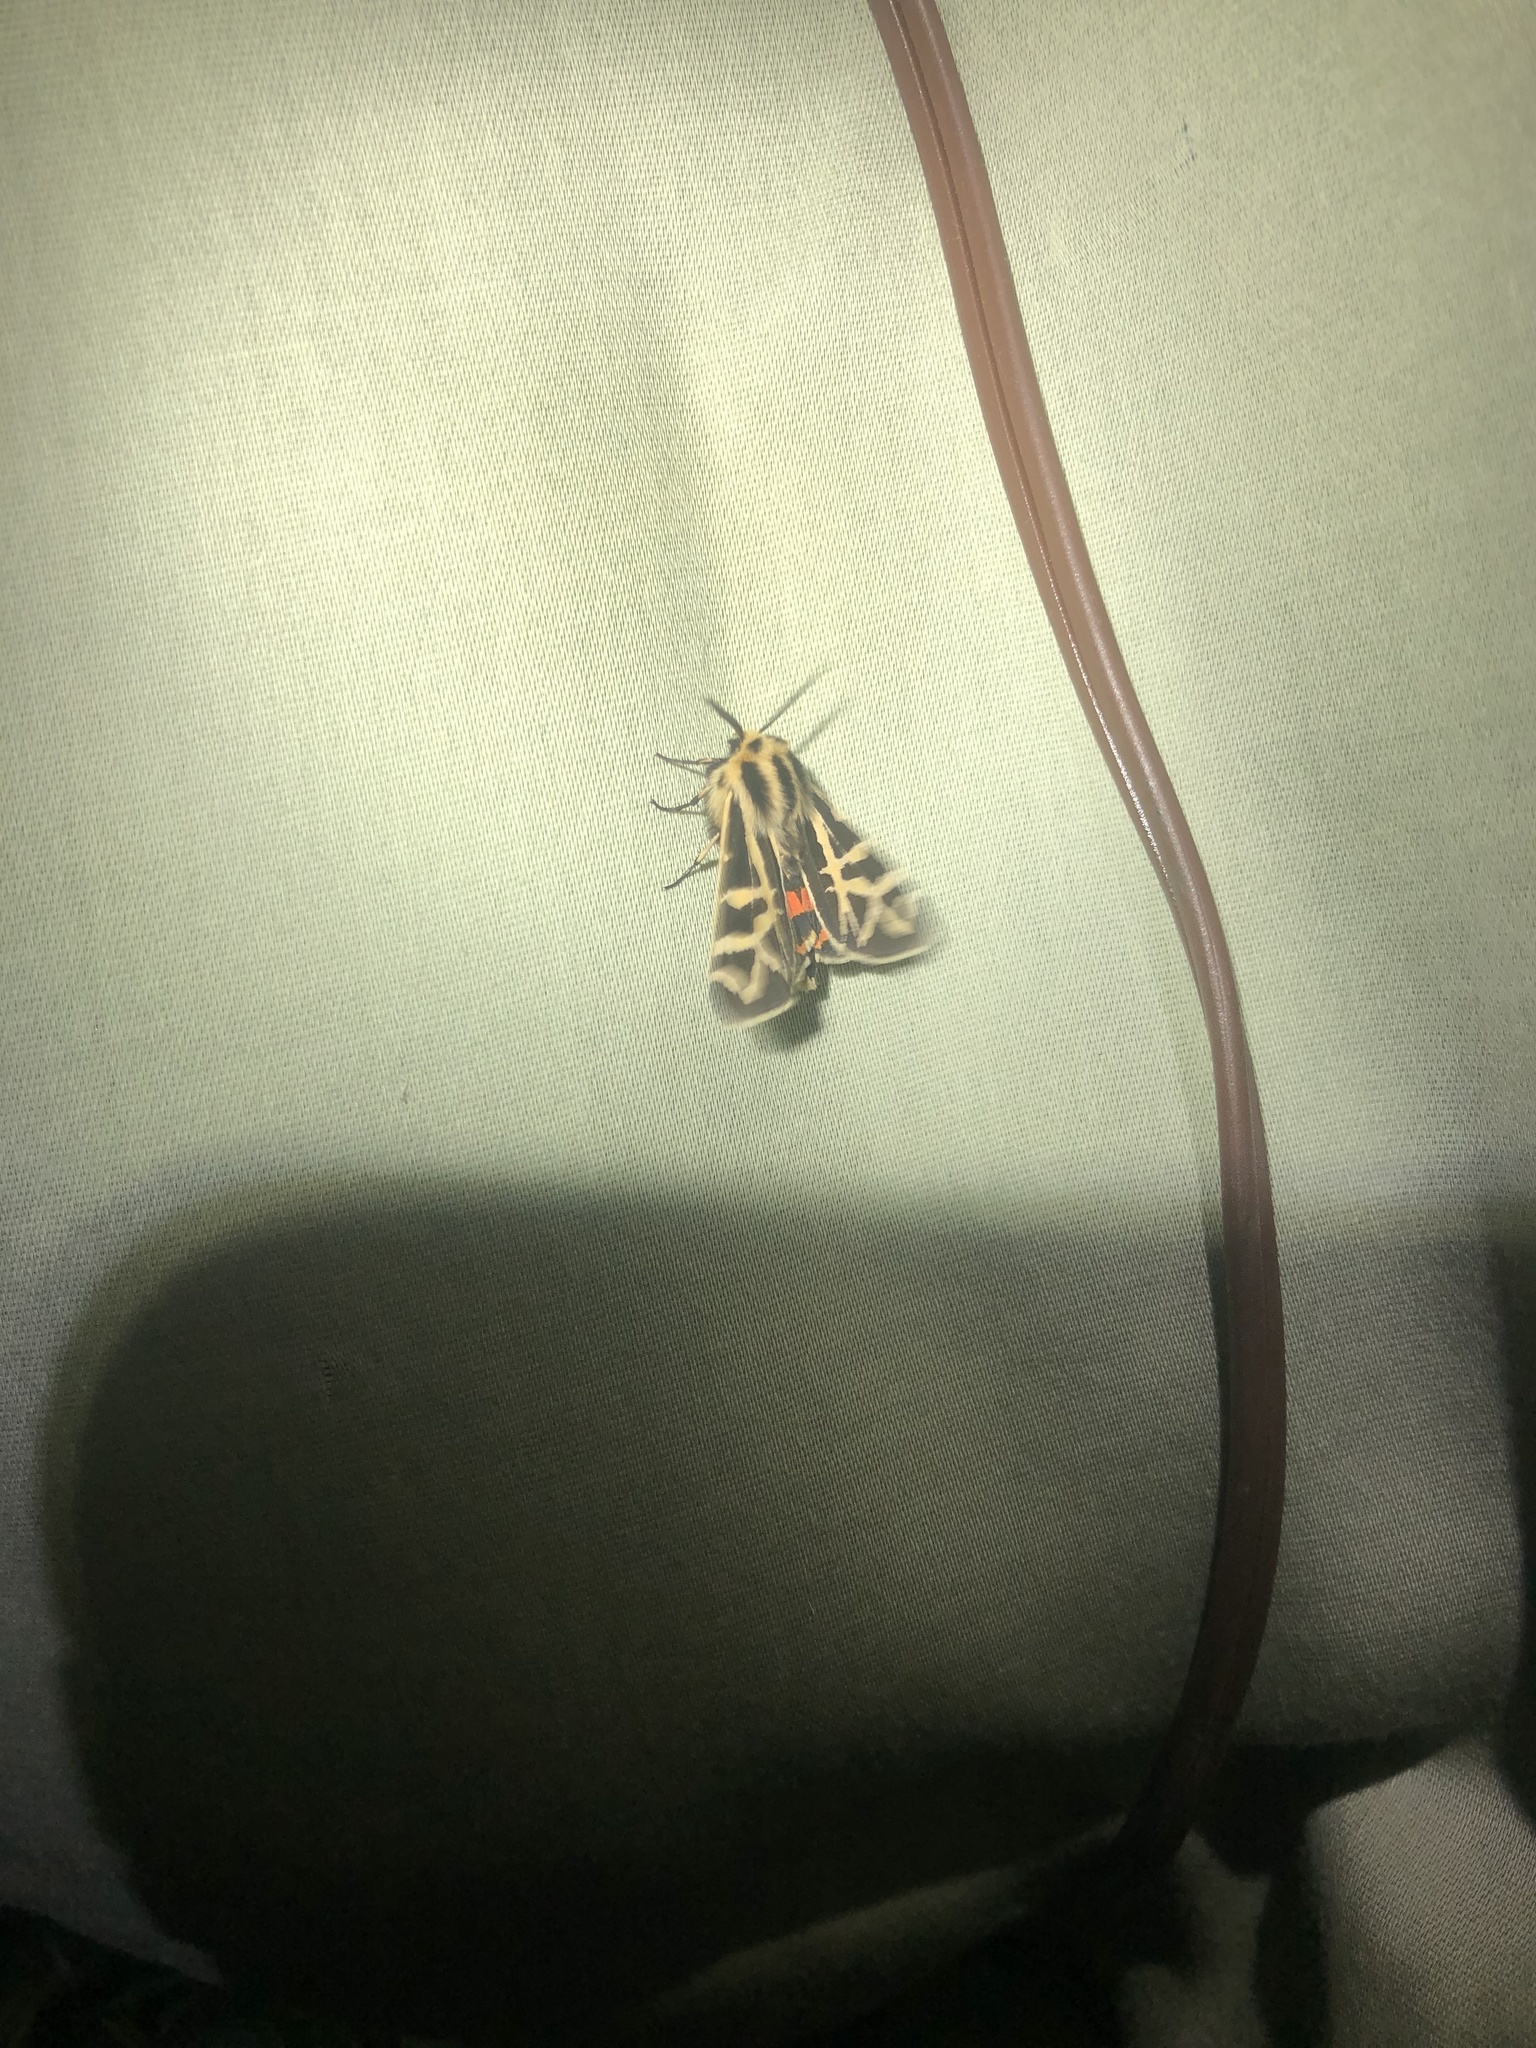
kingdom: Animalia
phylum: Arthropoda
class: Insecta
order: Lepidoptera
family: Erebidae
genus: Apantesis
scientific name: Apantesis
